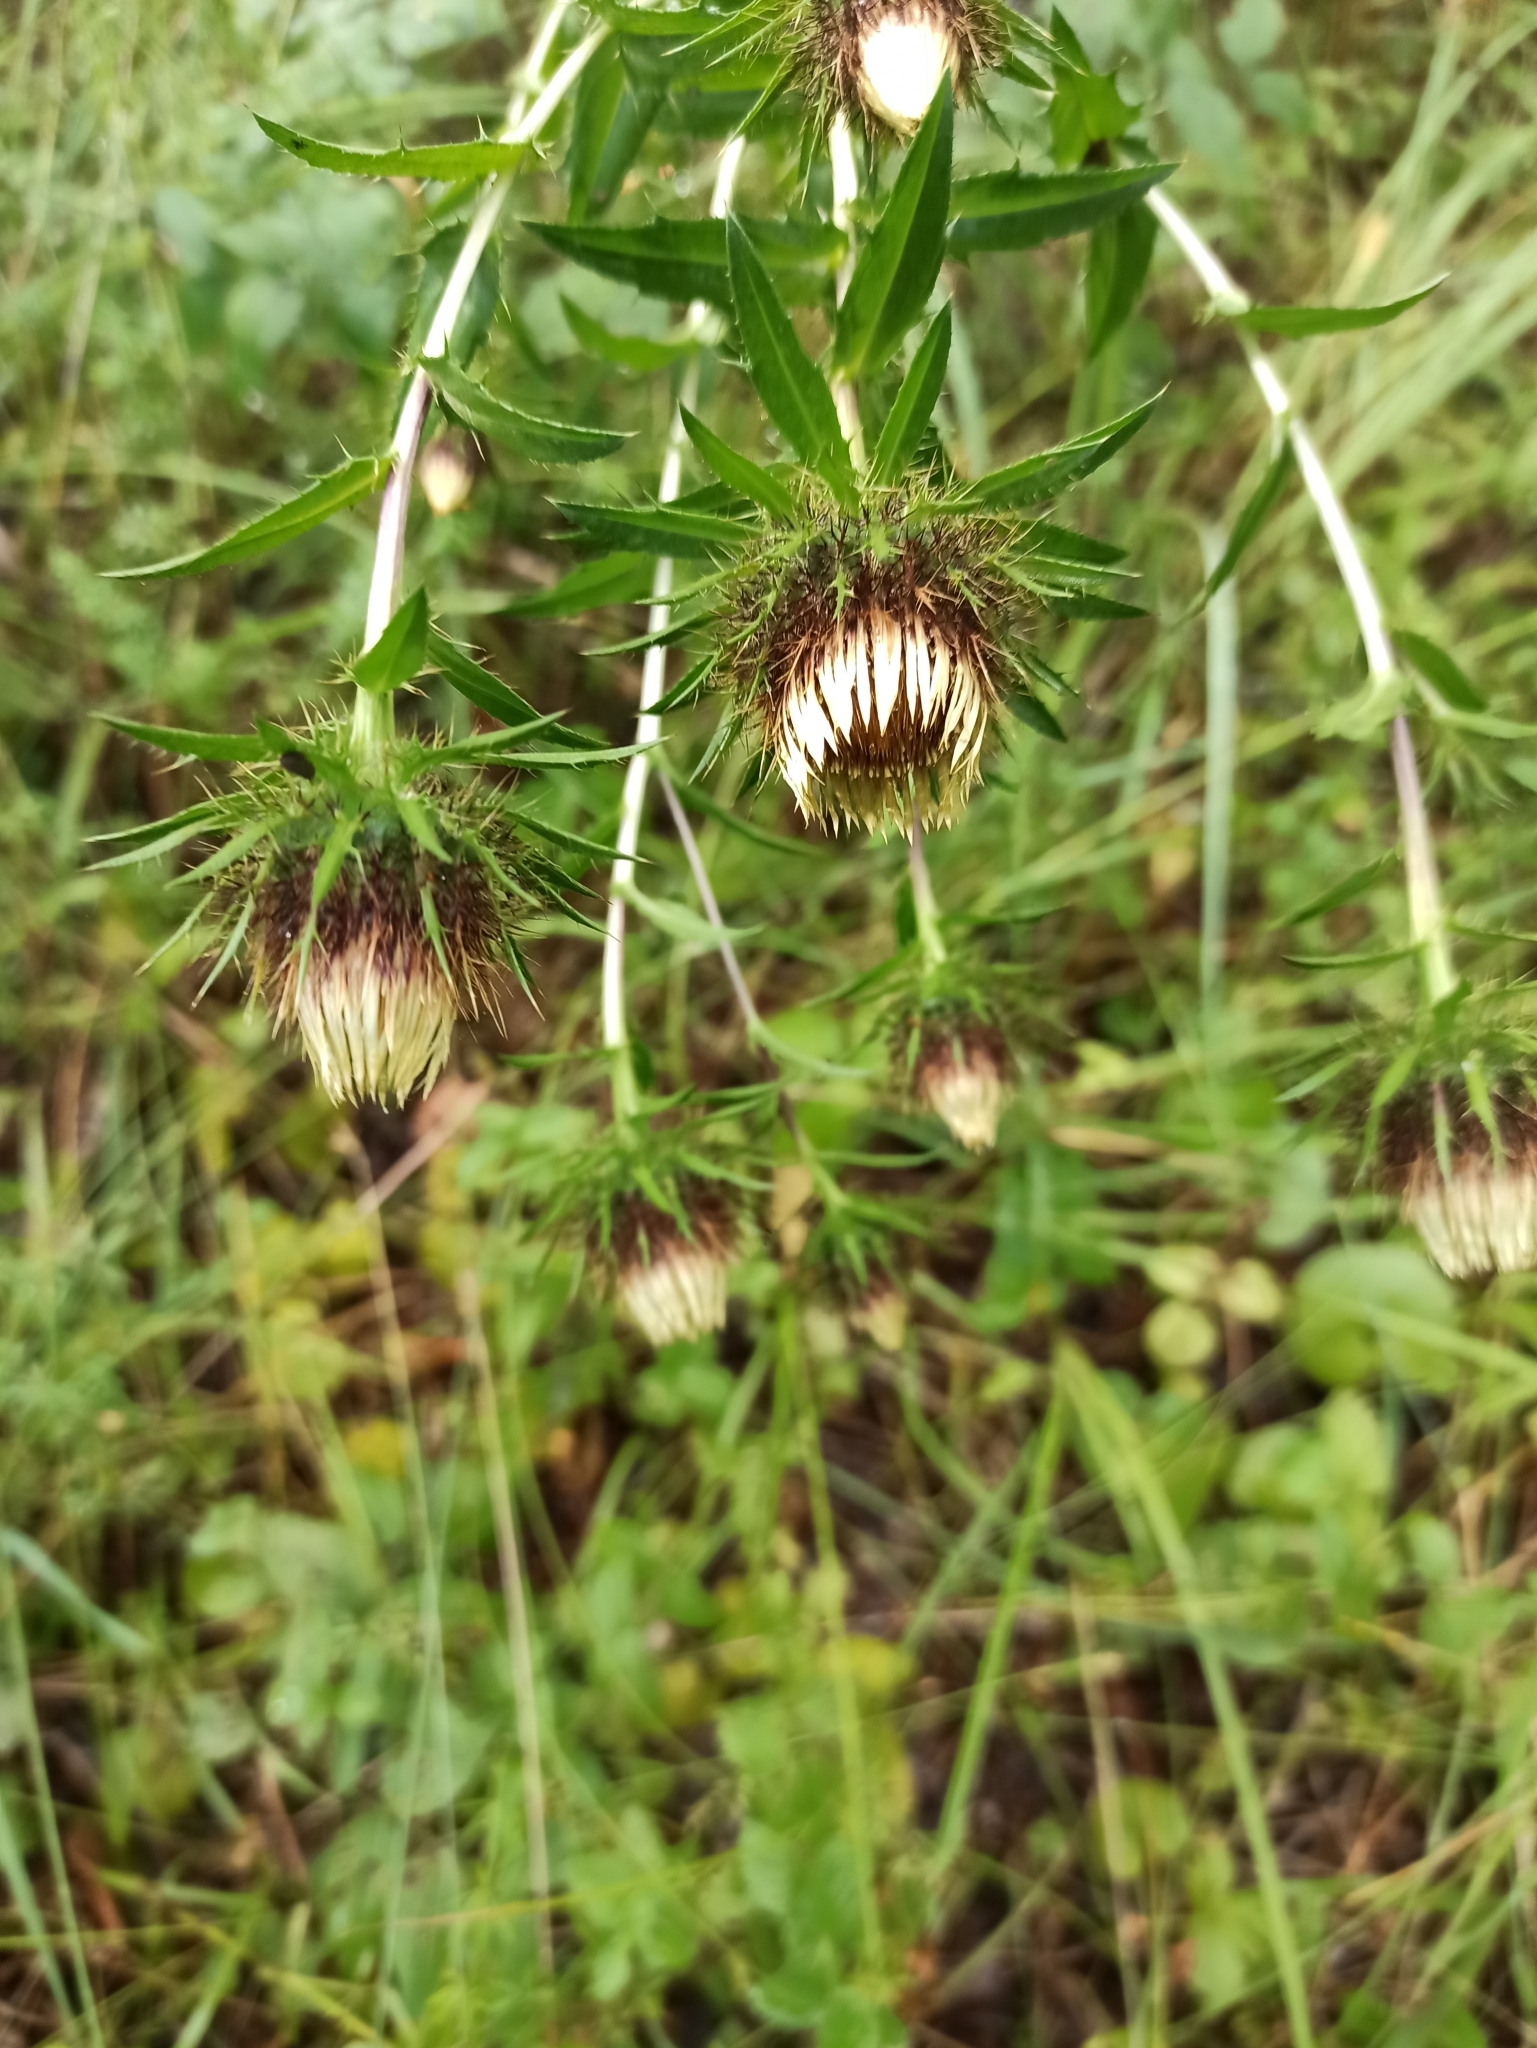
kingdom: Plantae
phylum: Tracheophyta
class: Magnoliopsida
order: Asterales
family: Asteraceae
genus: Carlina
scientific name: Carlina biebersteinii
